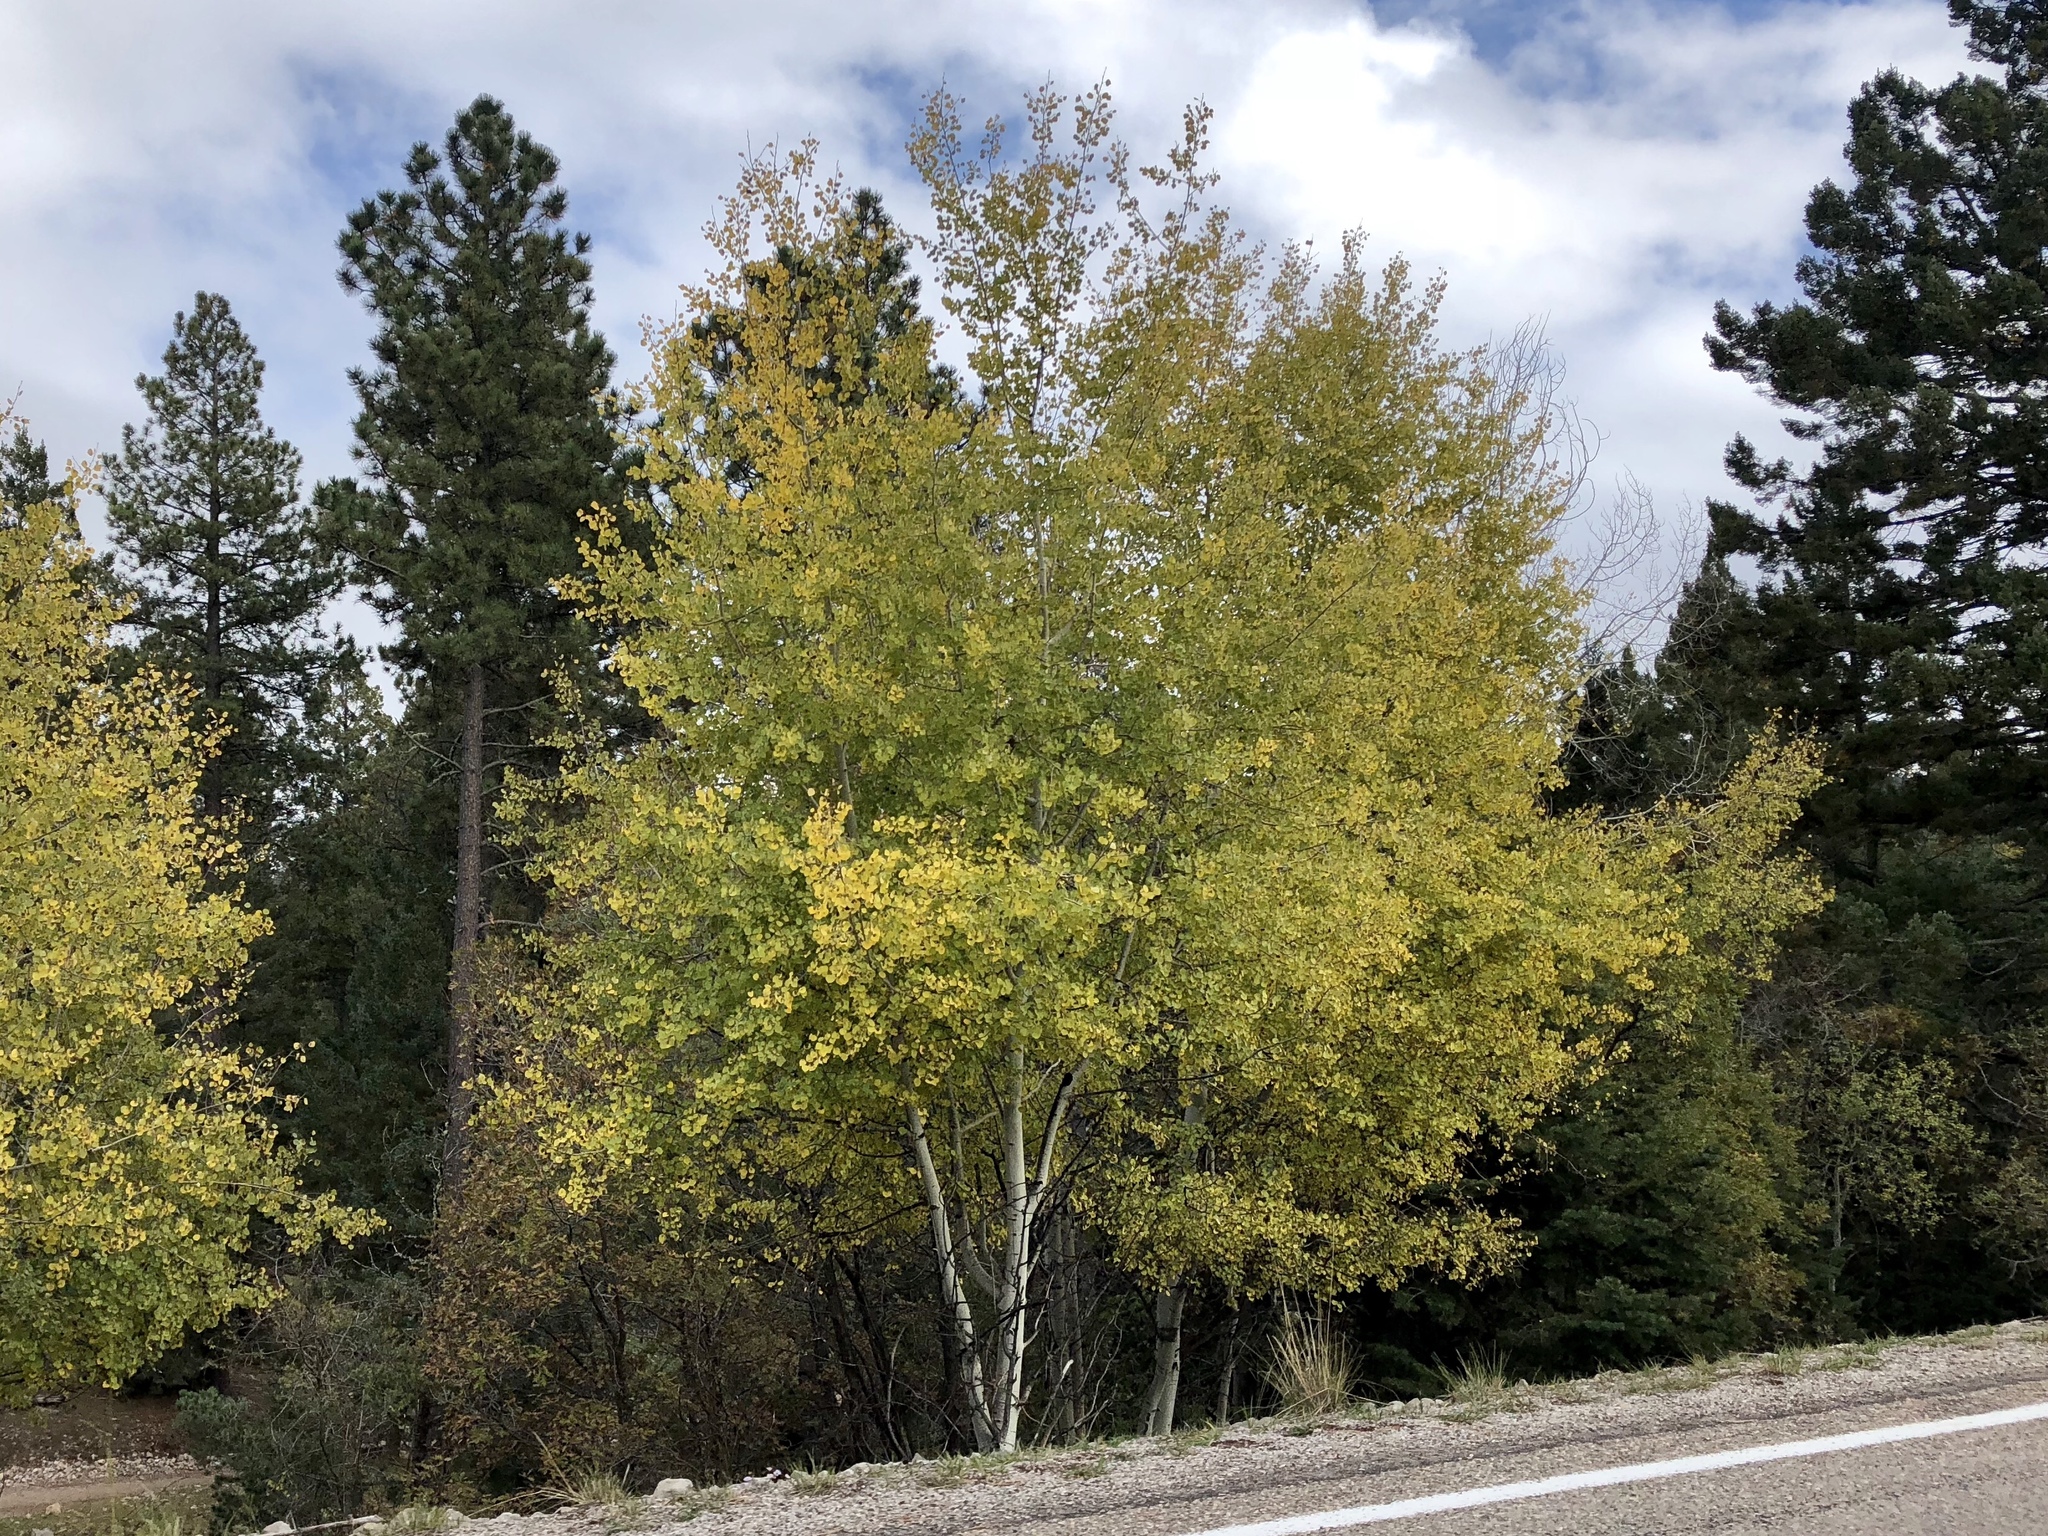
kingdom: Plantae
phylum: Tracheophyta
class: Magnoliopsida
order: Malpighiales
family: Salicaceae
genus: Populus
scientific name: Populus tremuloides
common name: Quaking aspen
